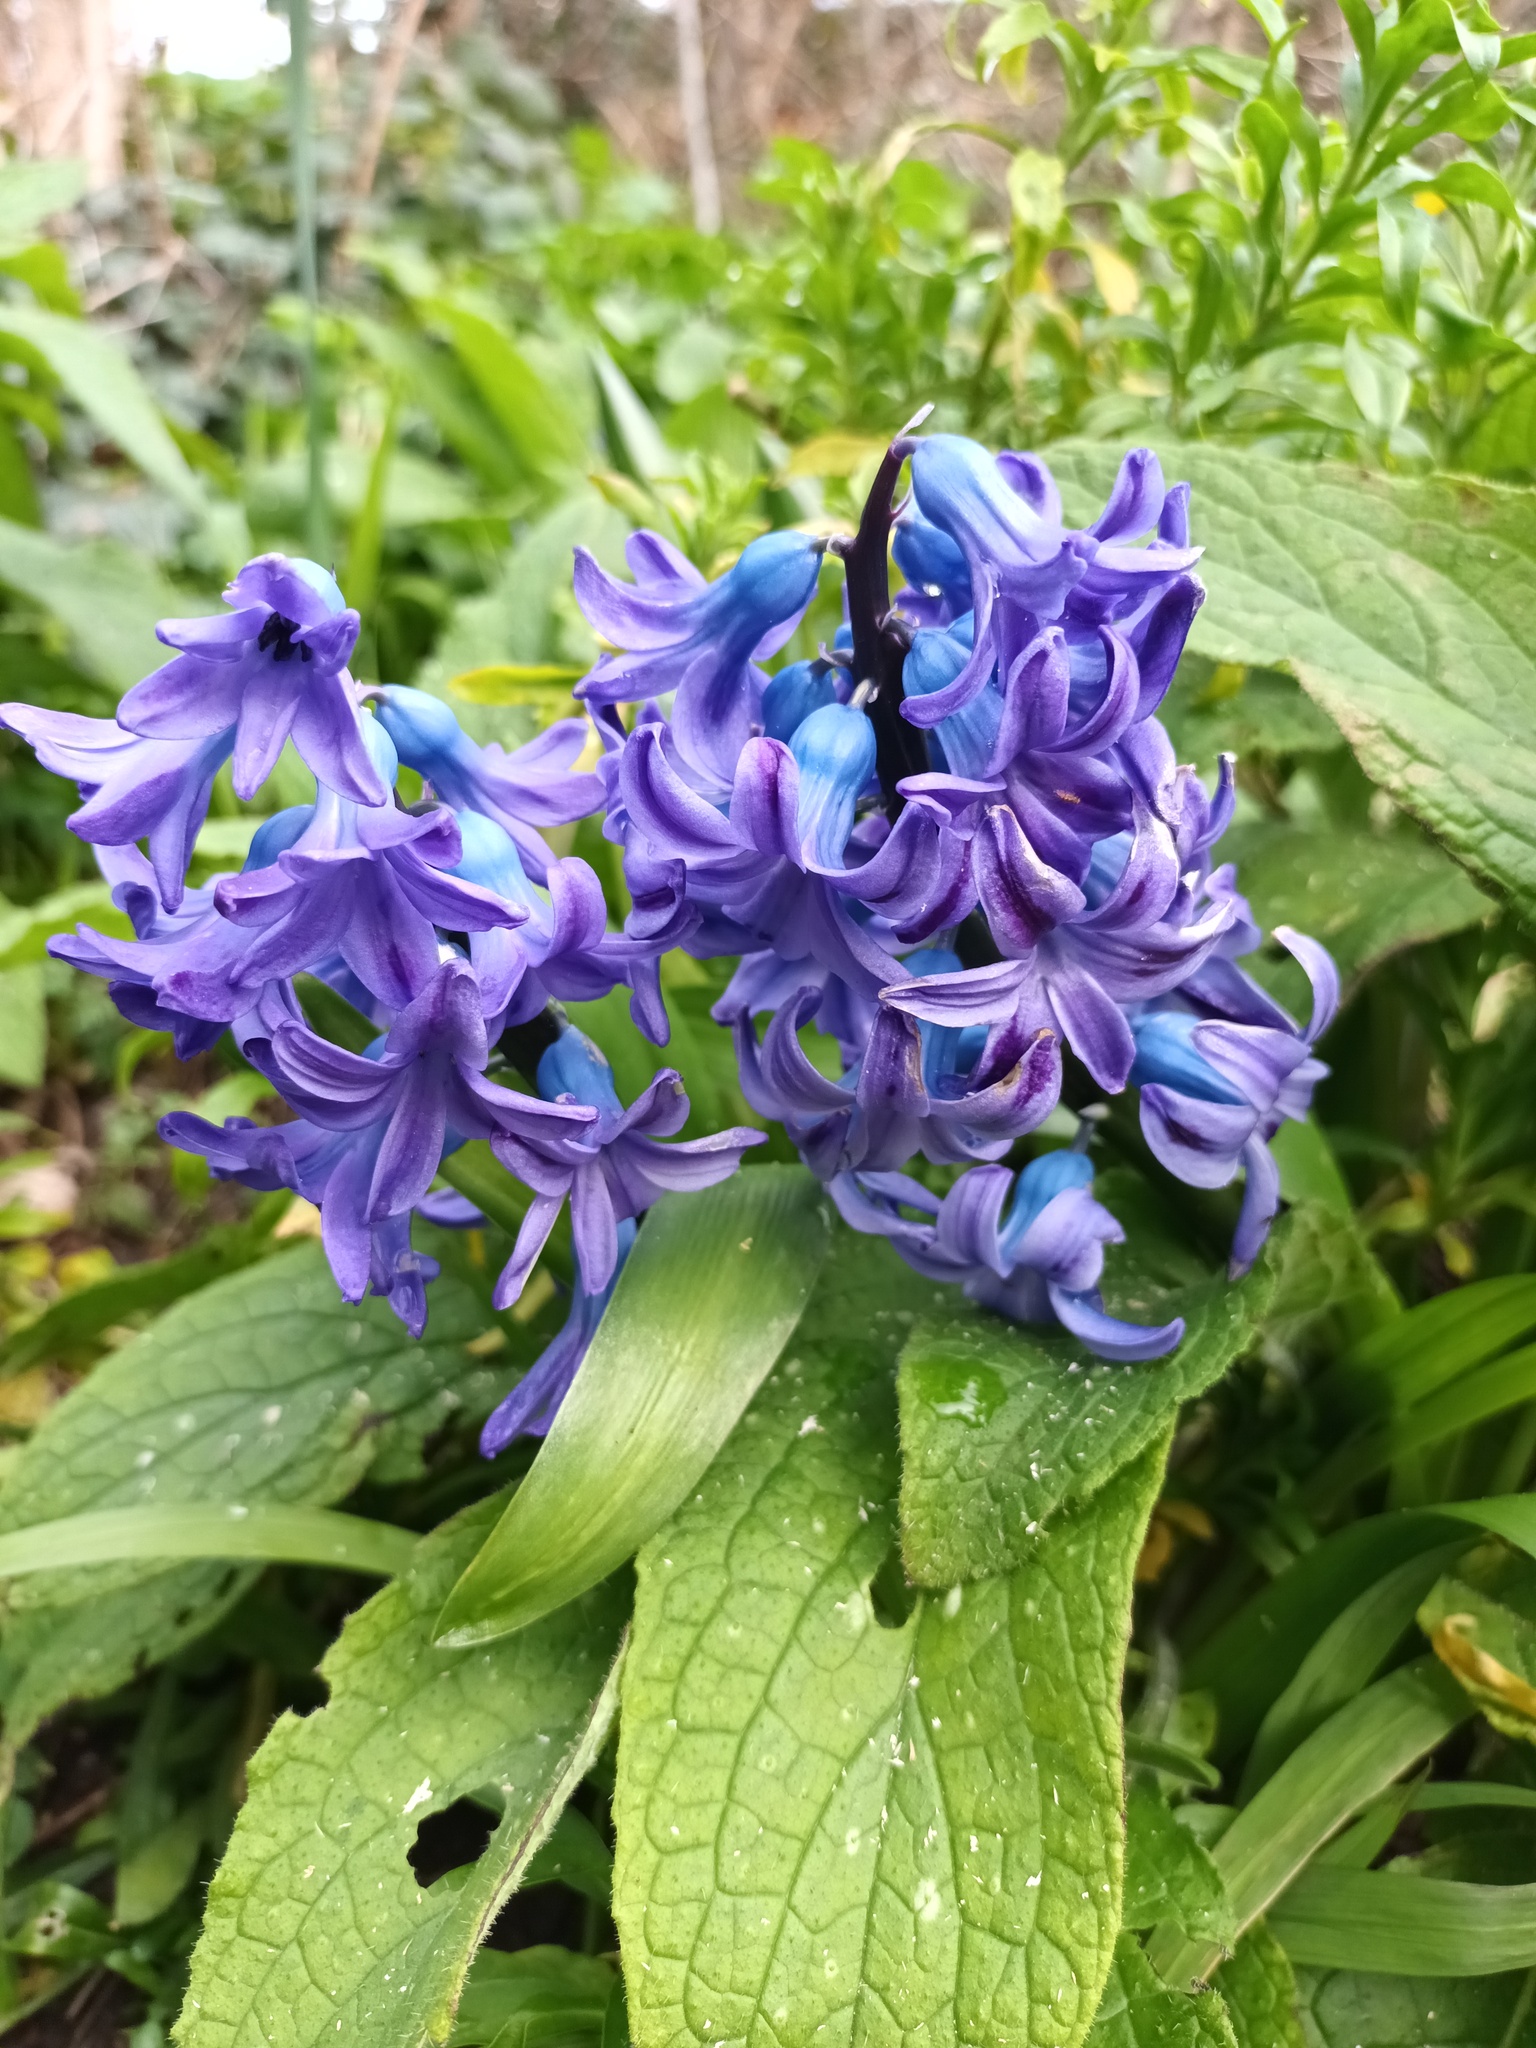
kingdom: Plantae
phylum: Tracheophyta
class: Liliopsida
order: Asparagales
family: Asparagaceae
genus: Hyacinthus
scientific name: Hyacinthus orientalis
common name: Hyacinth
